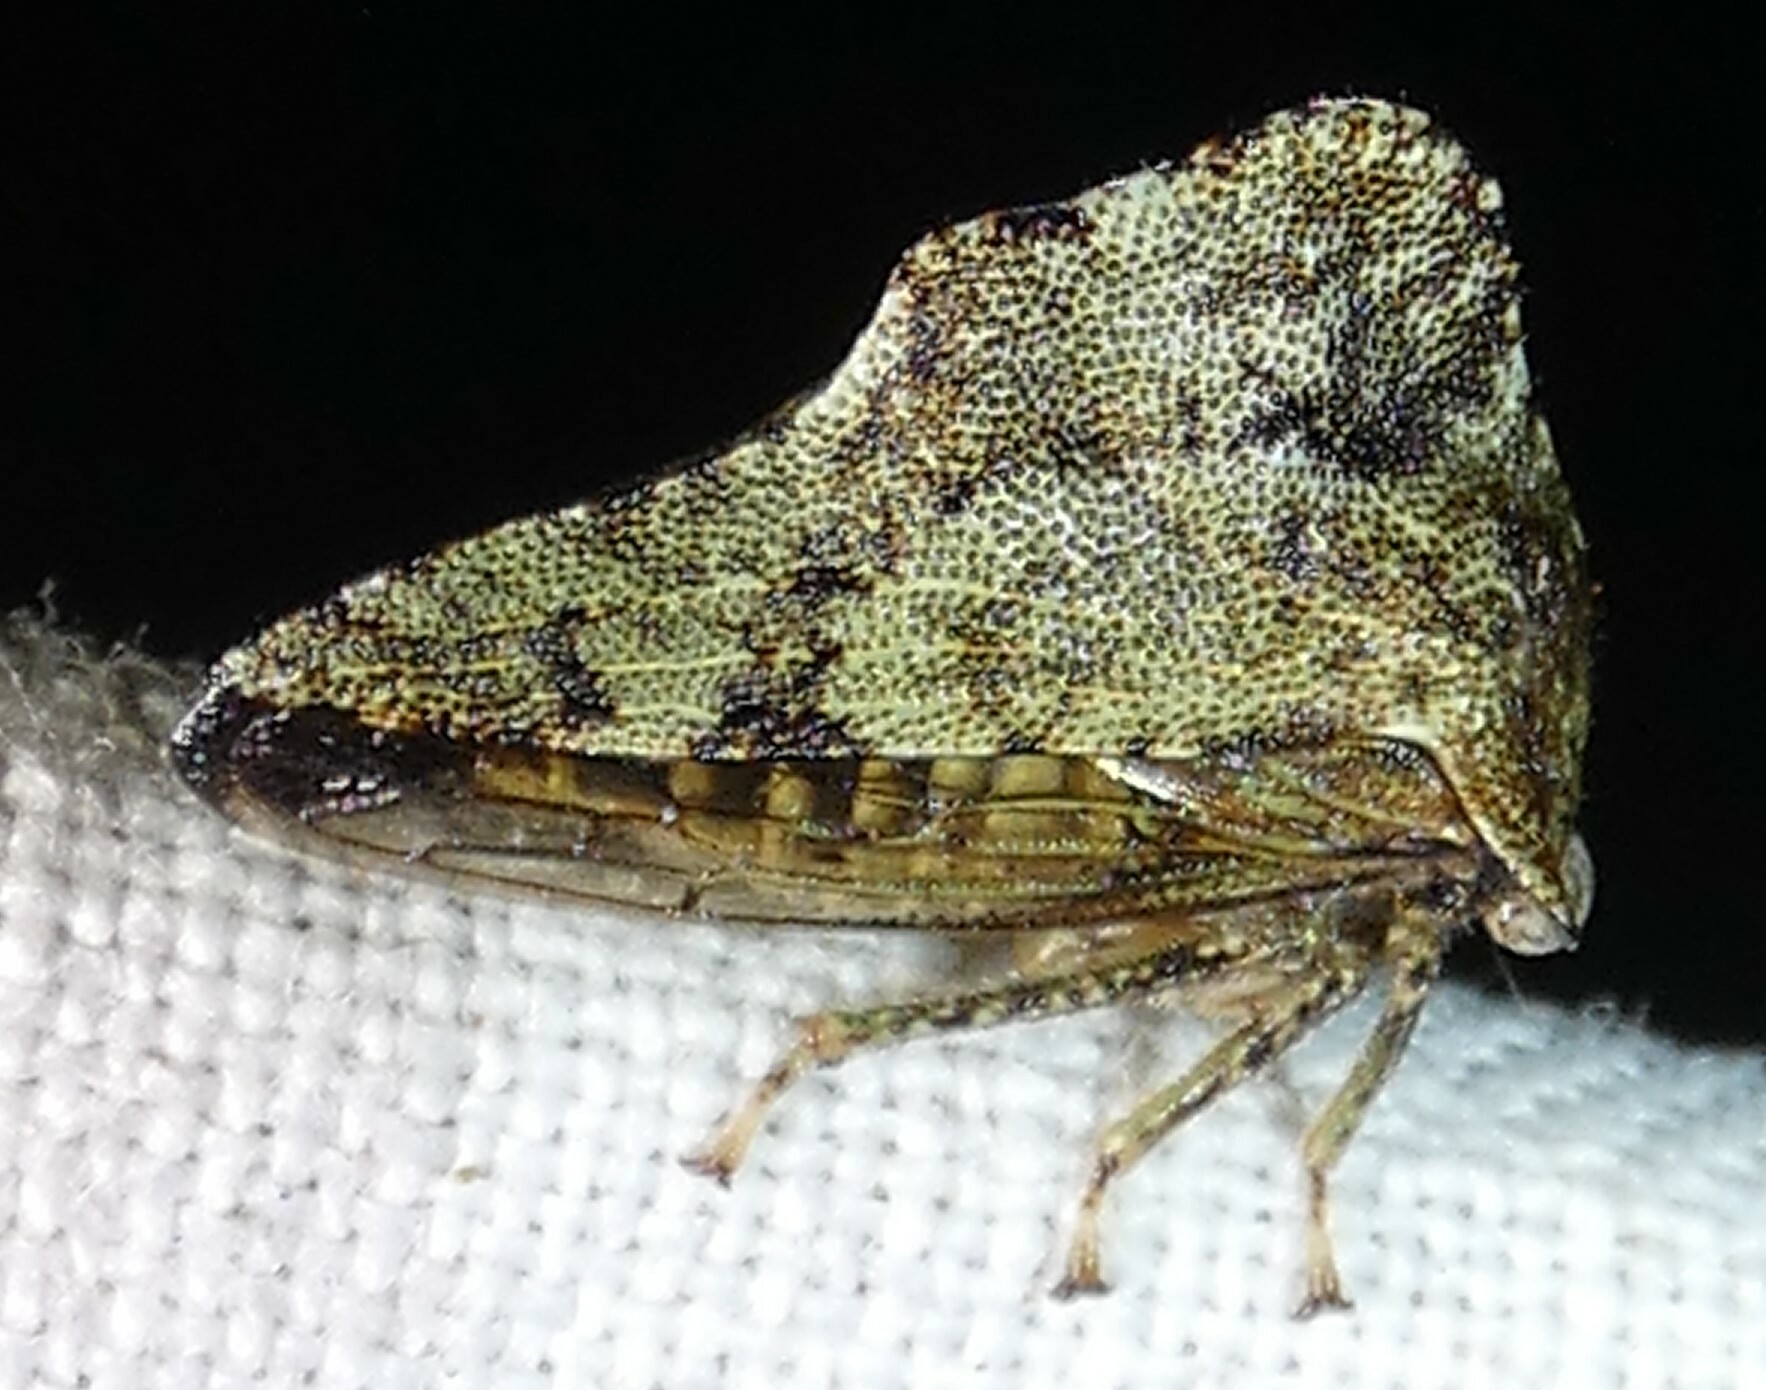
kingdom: Animalia
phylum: Arthropoda
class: Insecta
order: Hemiptera
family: Membracidae
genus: Heliria
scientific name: Heliria cornutula
